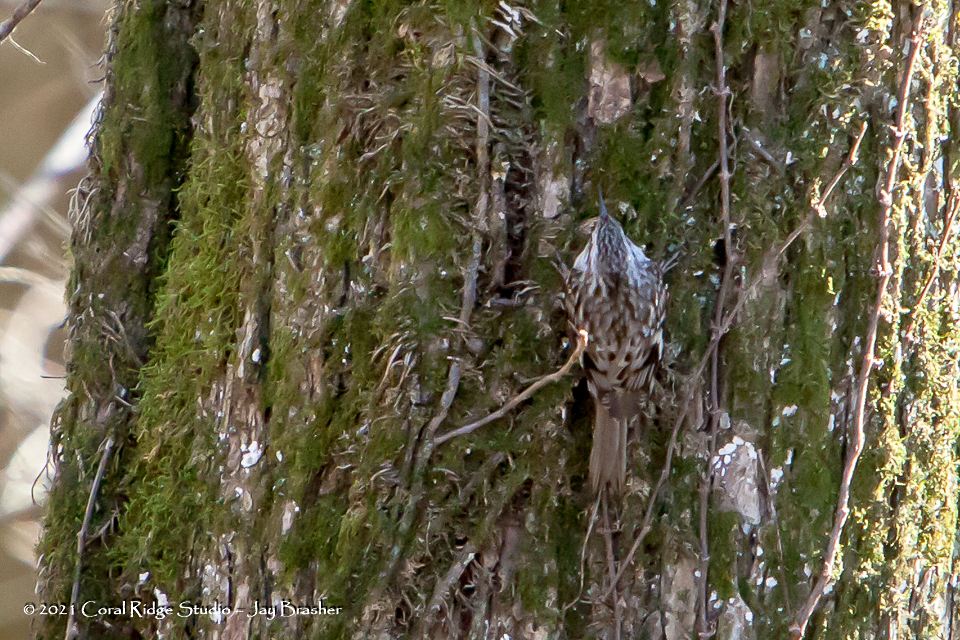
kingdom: Animalia
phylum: Chordata
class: Aves
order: Passeriformes
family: Certhiidae
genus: Certhia
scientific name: Certhia americana
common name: Brown creeper
